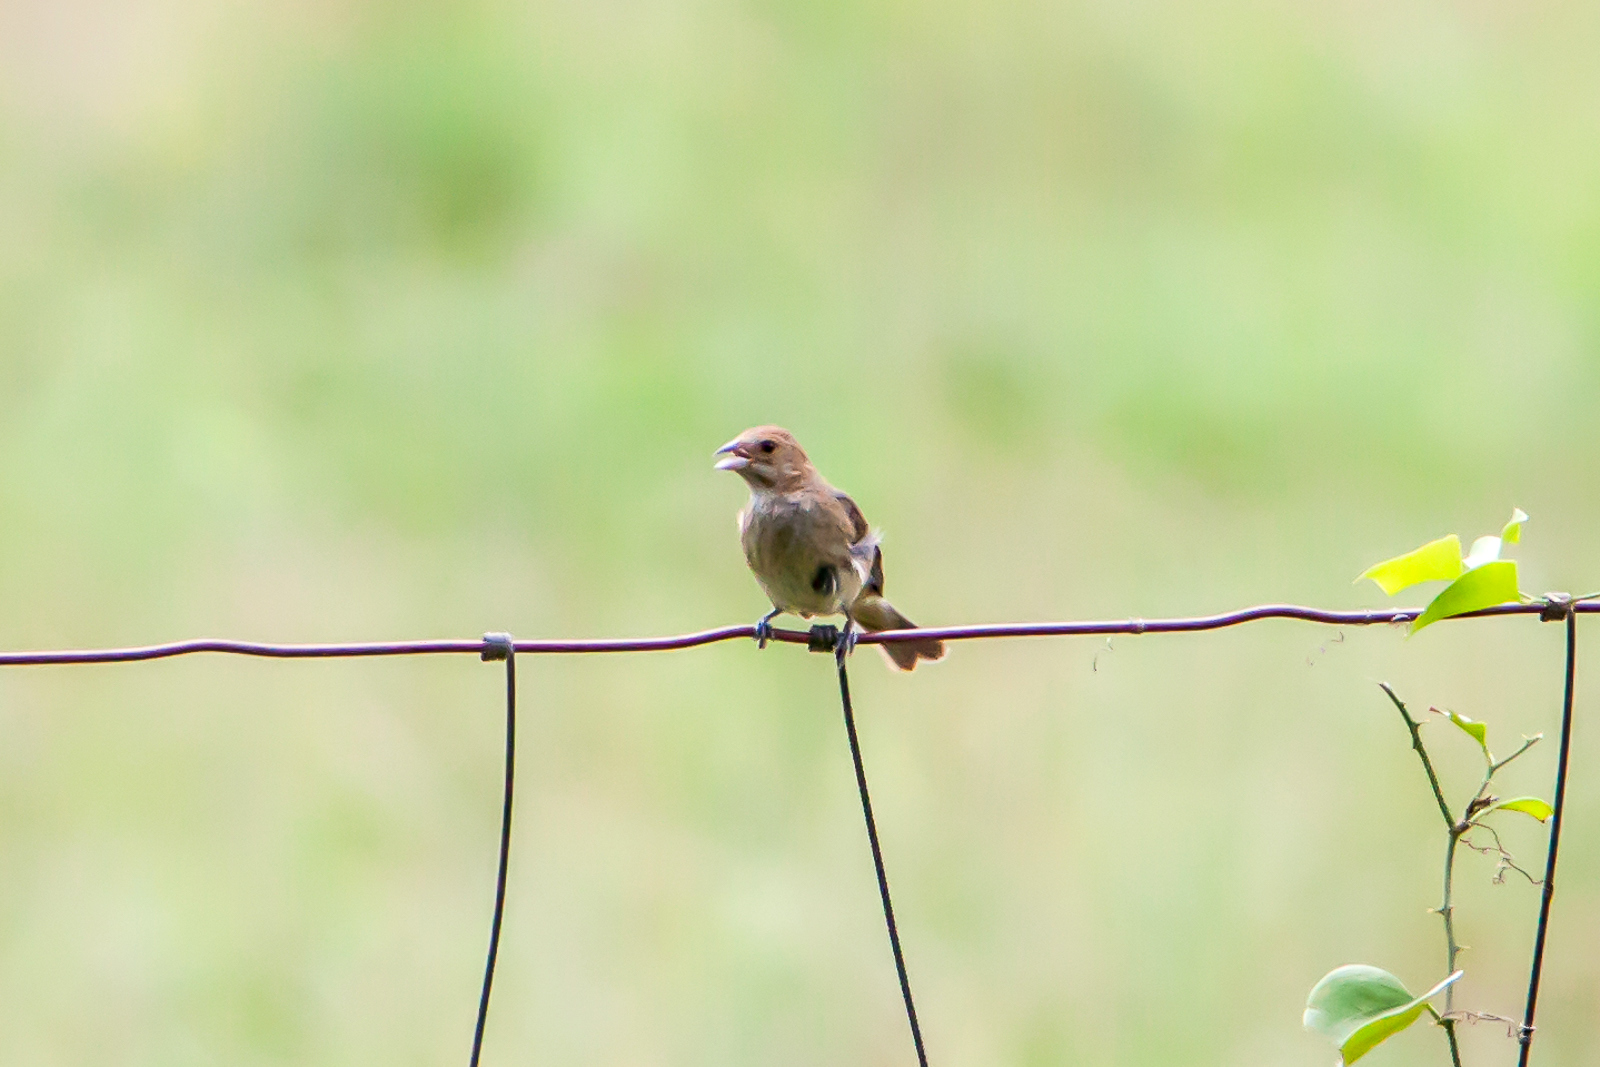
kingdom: Animalia
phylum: Chordata
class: Aves
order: Passeriformes
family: Cardinalidae
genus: Passerina
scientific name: Passerina cyanea
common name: Indigo bunting
